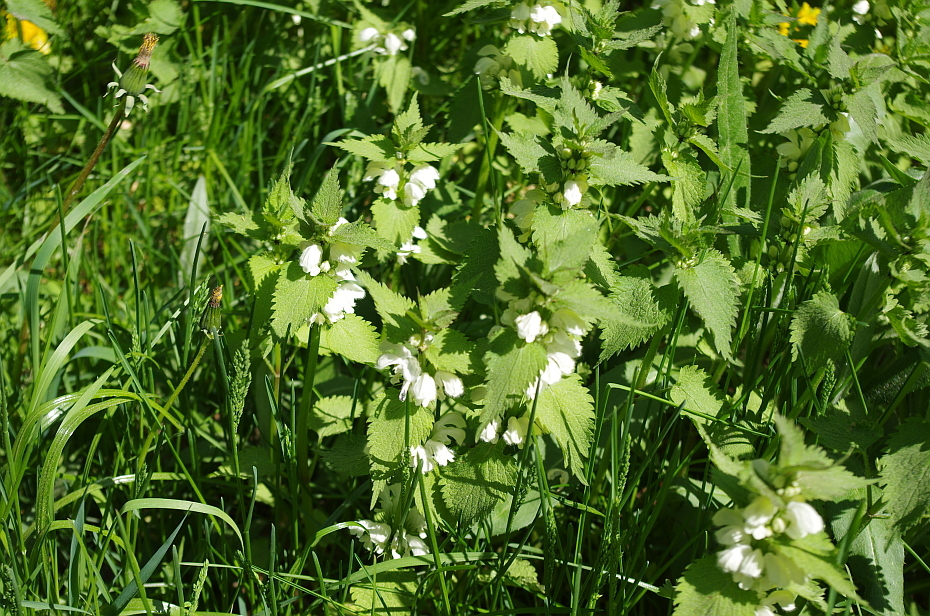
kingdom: Plantae
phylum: Tracheophyta
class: Magnoliopsida
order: Lamiales
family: Lamiaceae
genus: Lamium
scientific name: Lamium album
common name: White dead-nettle
